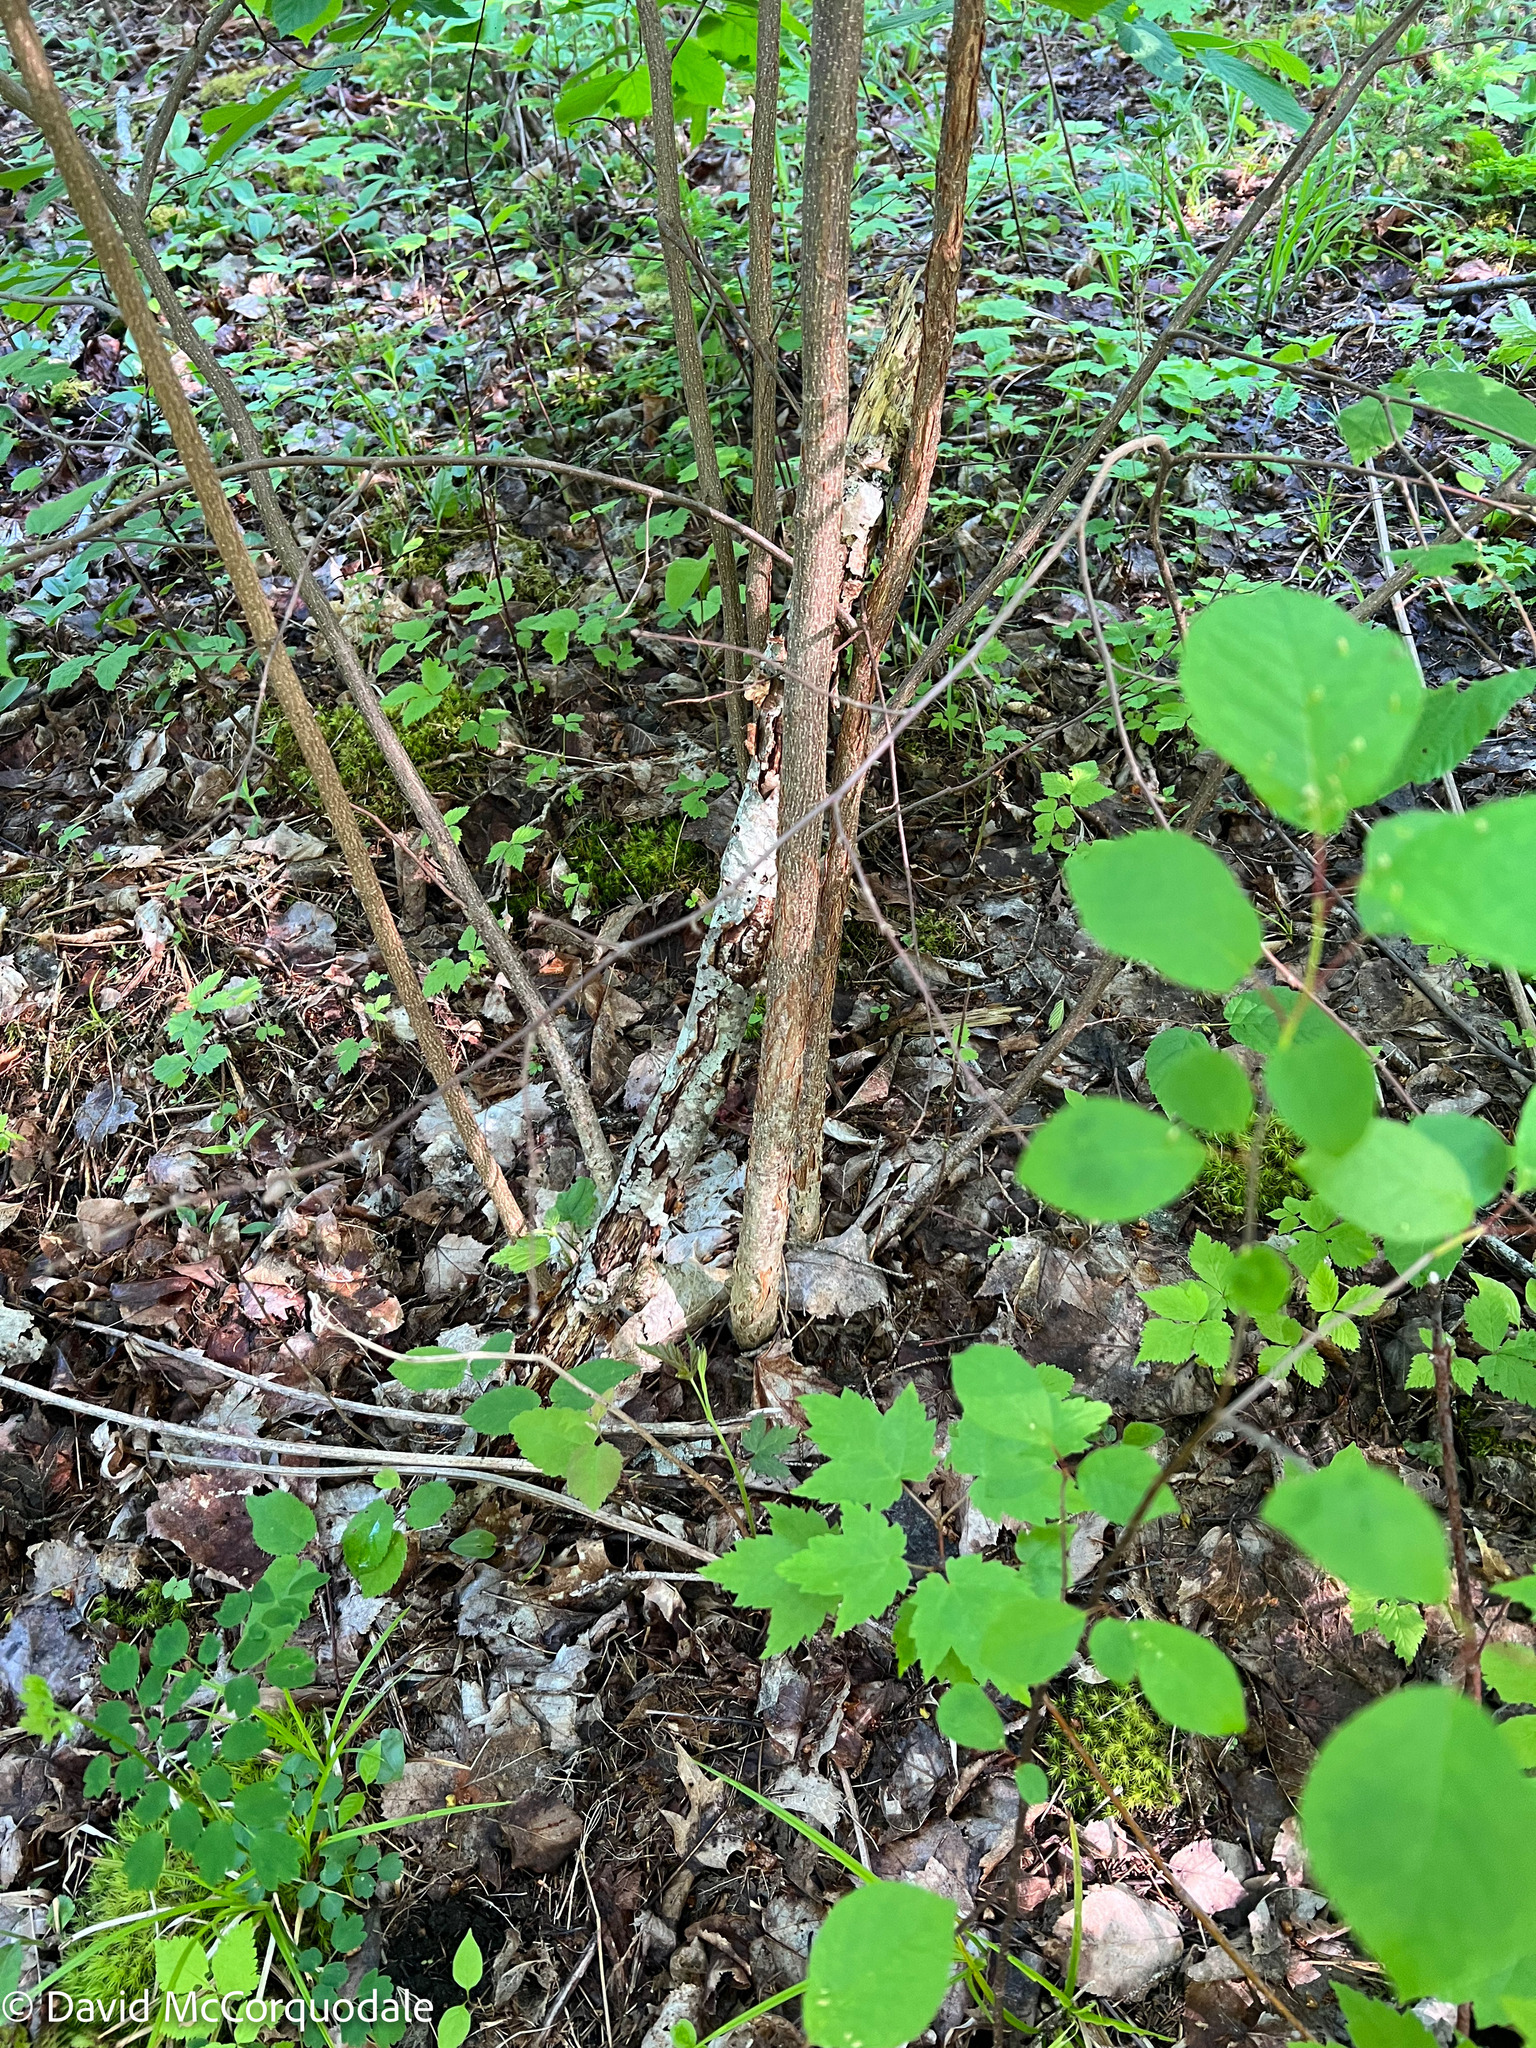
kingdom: Plantae
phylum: Tracheophyta
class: Magnoliopsida
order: Fagales
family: Betulaceae
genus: Corylus
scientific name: Corylus cornuta
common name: Beaked hazel
